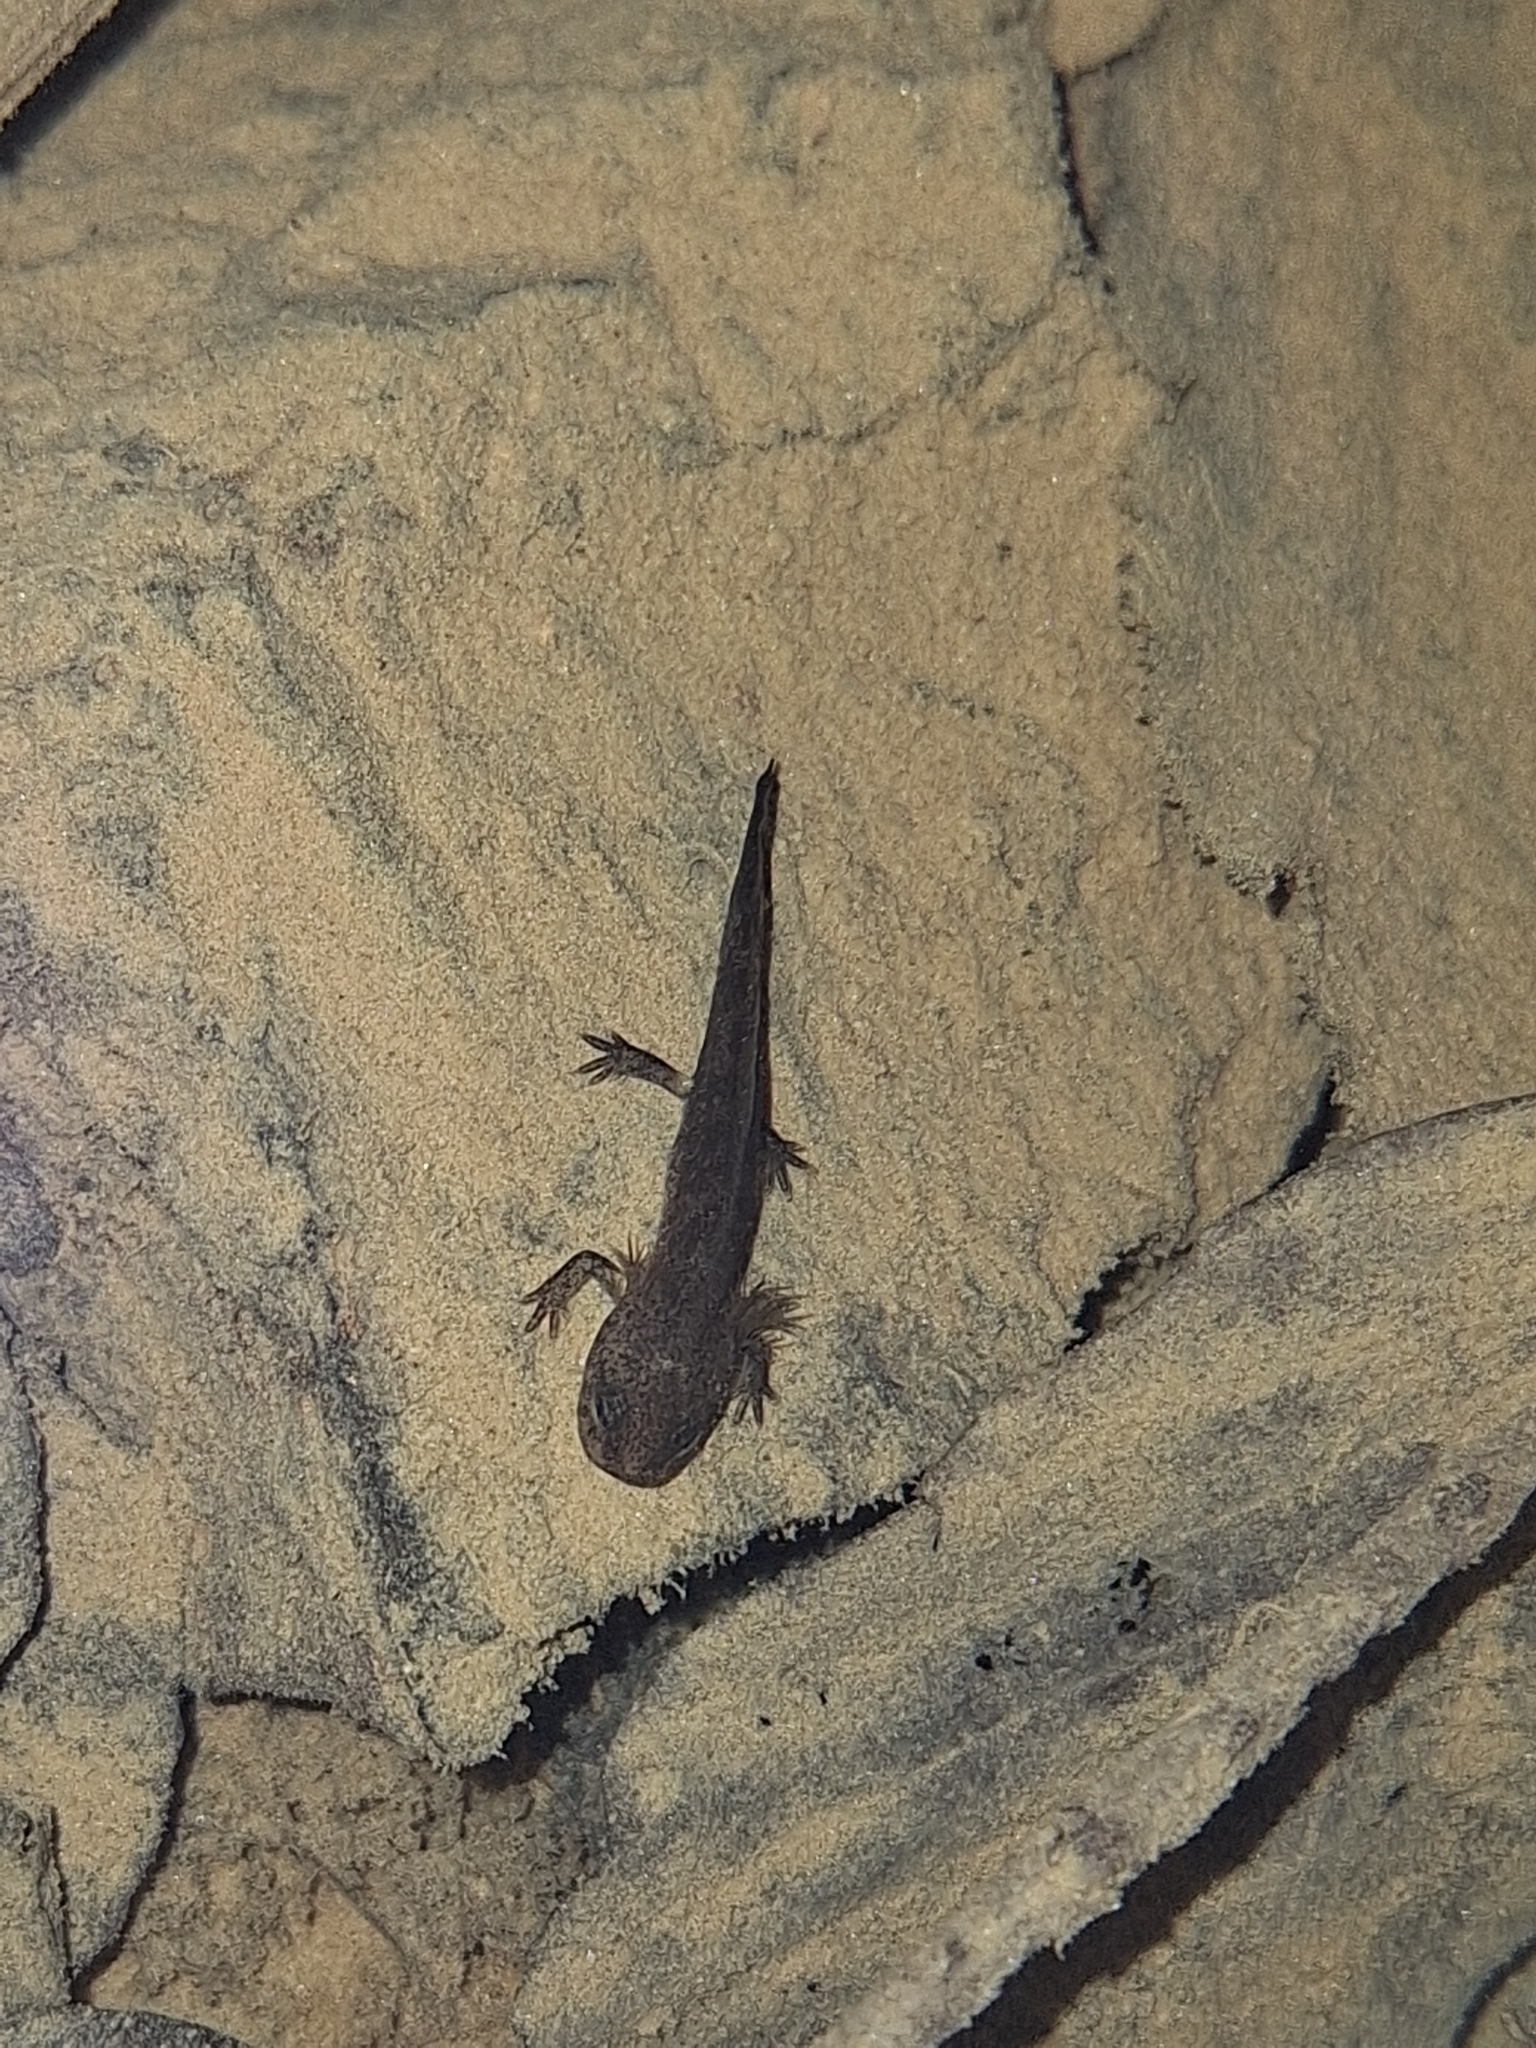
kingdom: Animalia
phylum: Chordata
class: Amphibia
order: Caudata
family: Salamandridae
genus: Salamandra
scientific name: Salamandra salamandra
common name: Fire salamander
